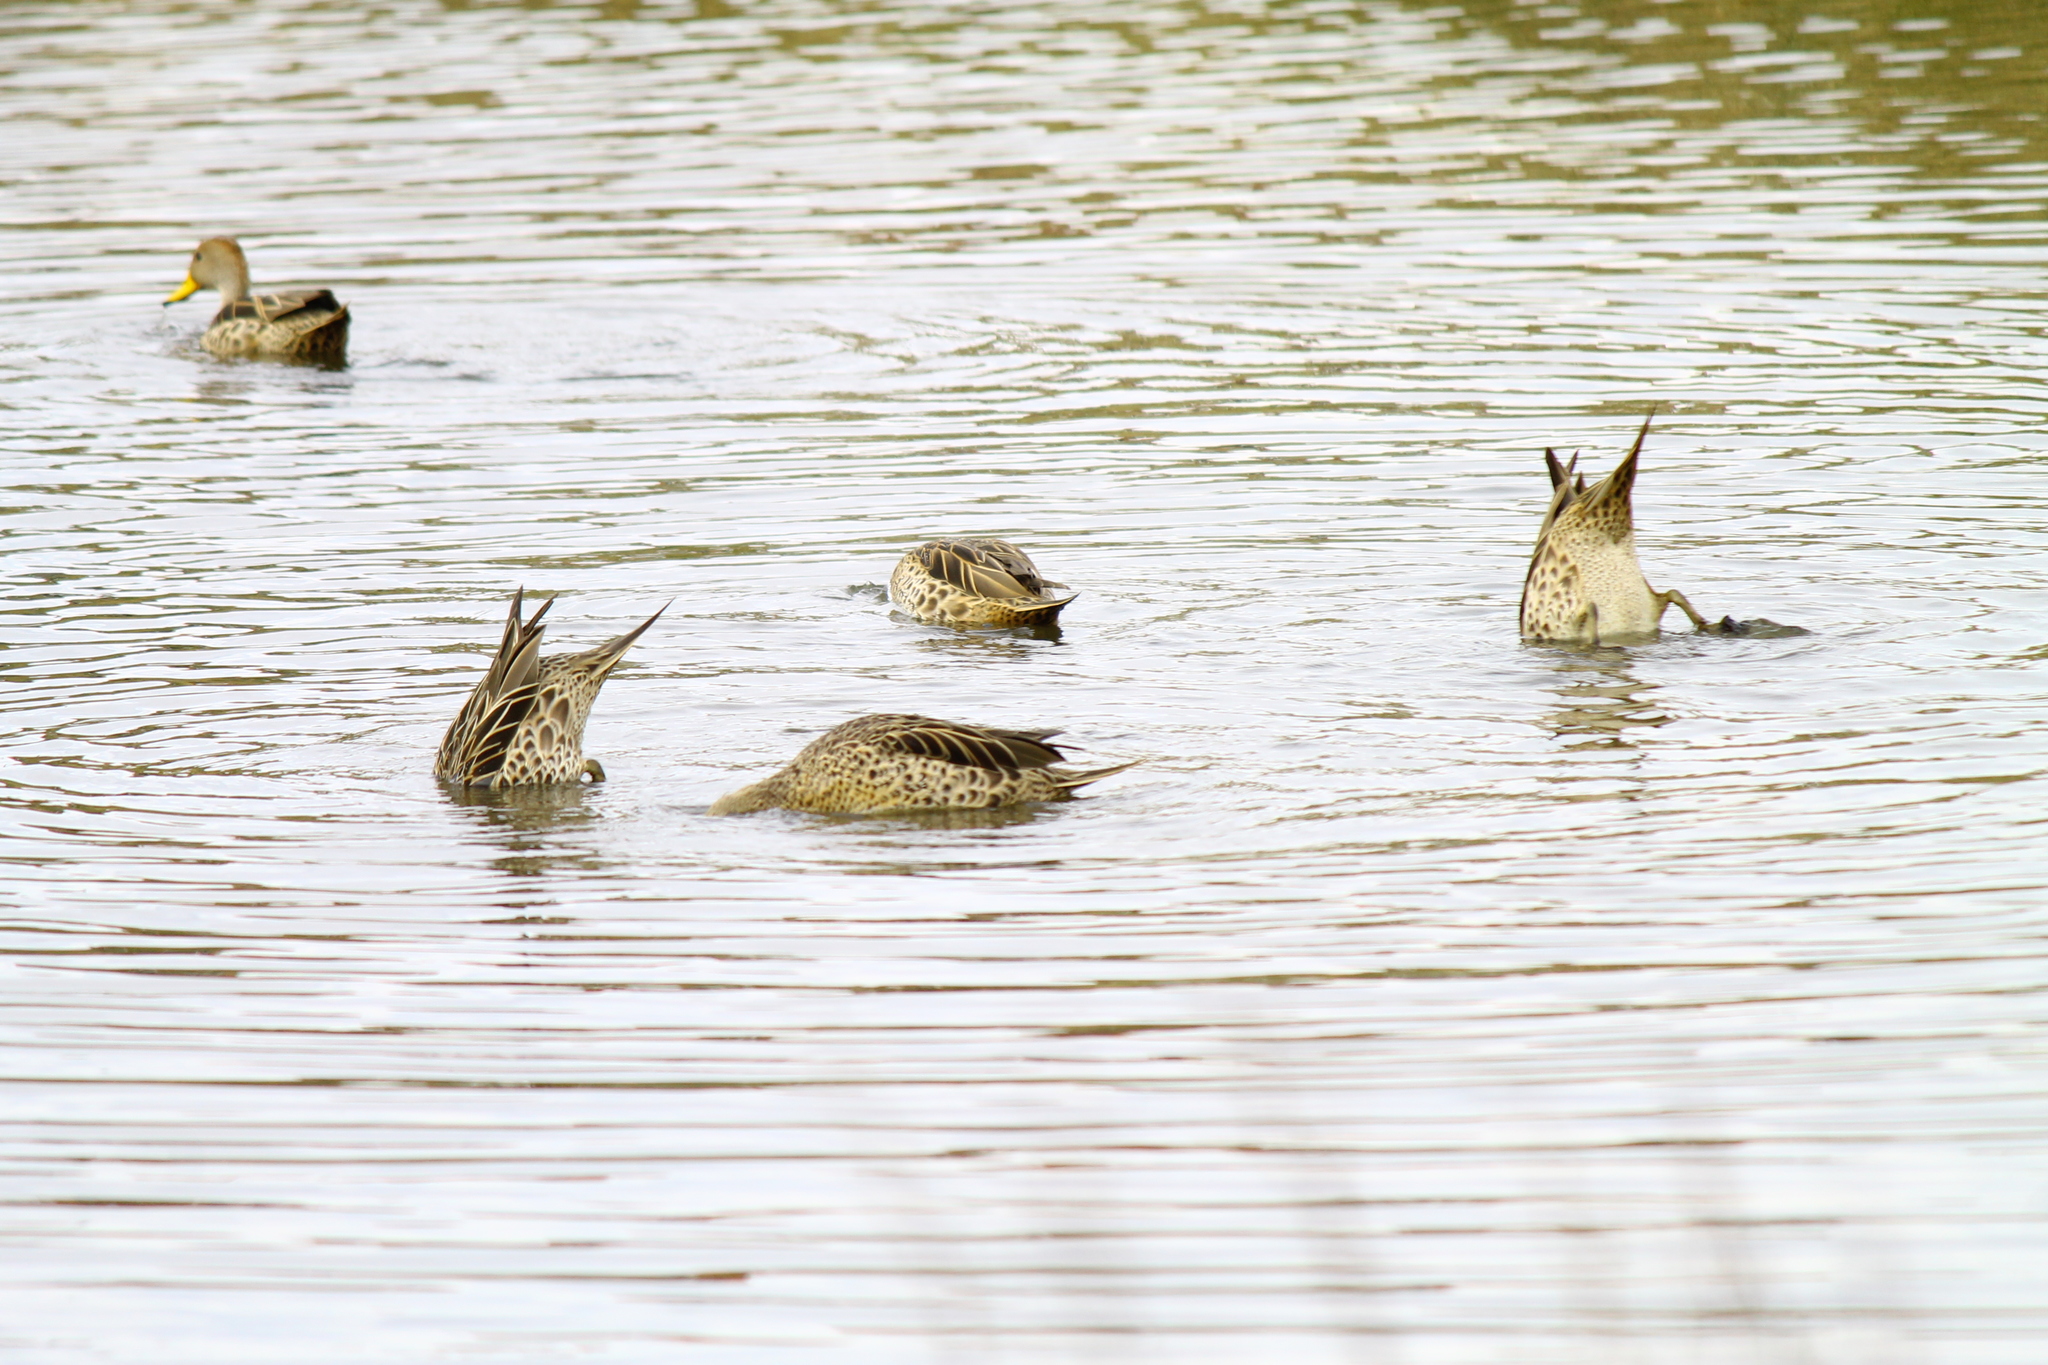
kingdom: Animalia
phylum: Chordata
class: Aves
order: Anseriformes
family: Anatidae
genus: Anas
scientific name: Anas georgica
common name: Yellow-billed pintail
